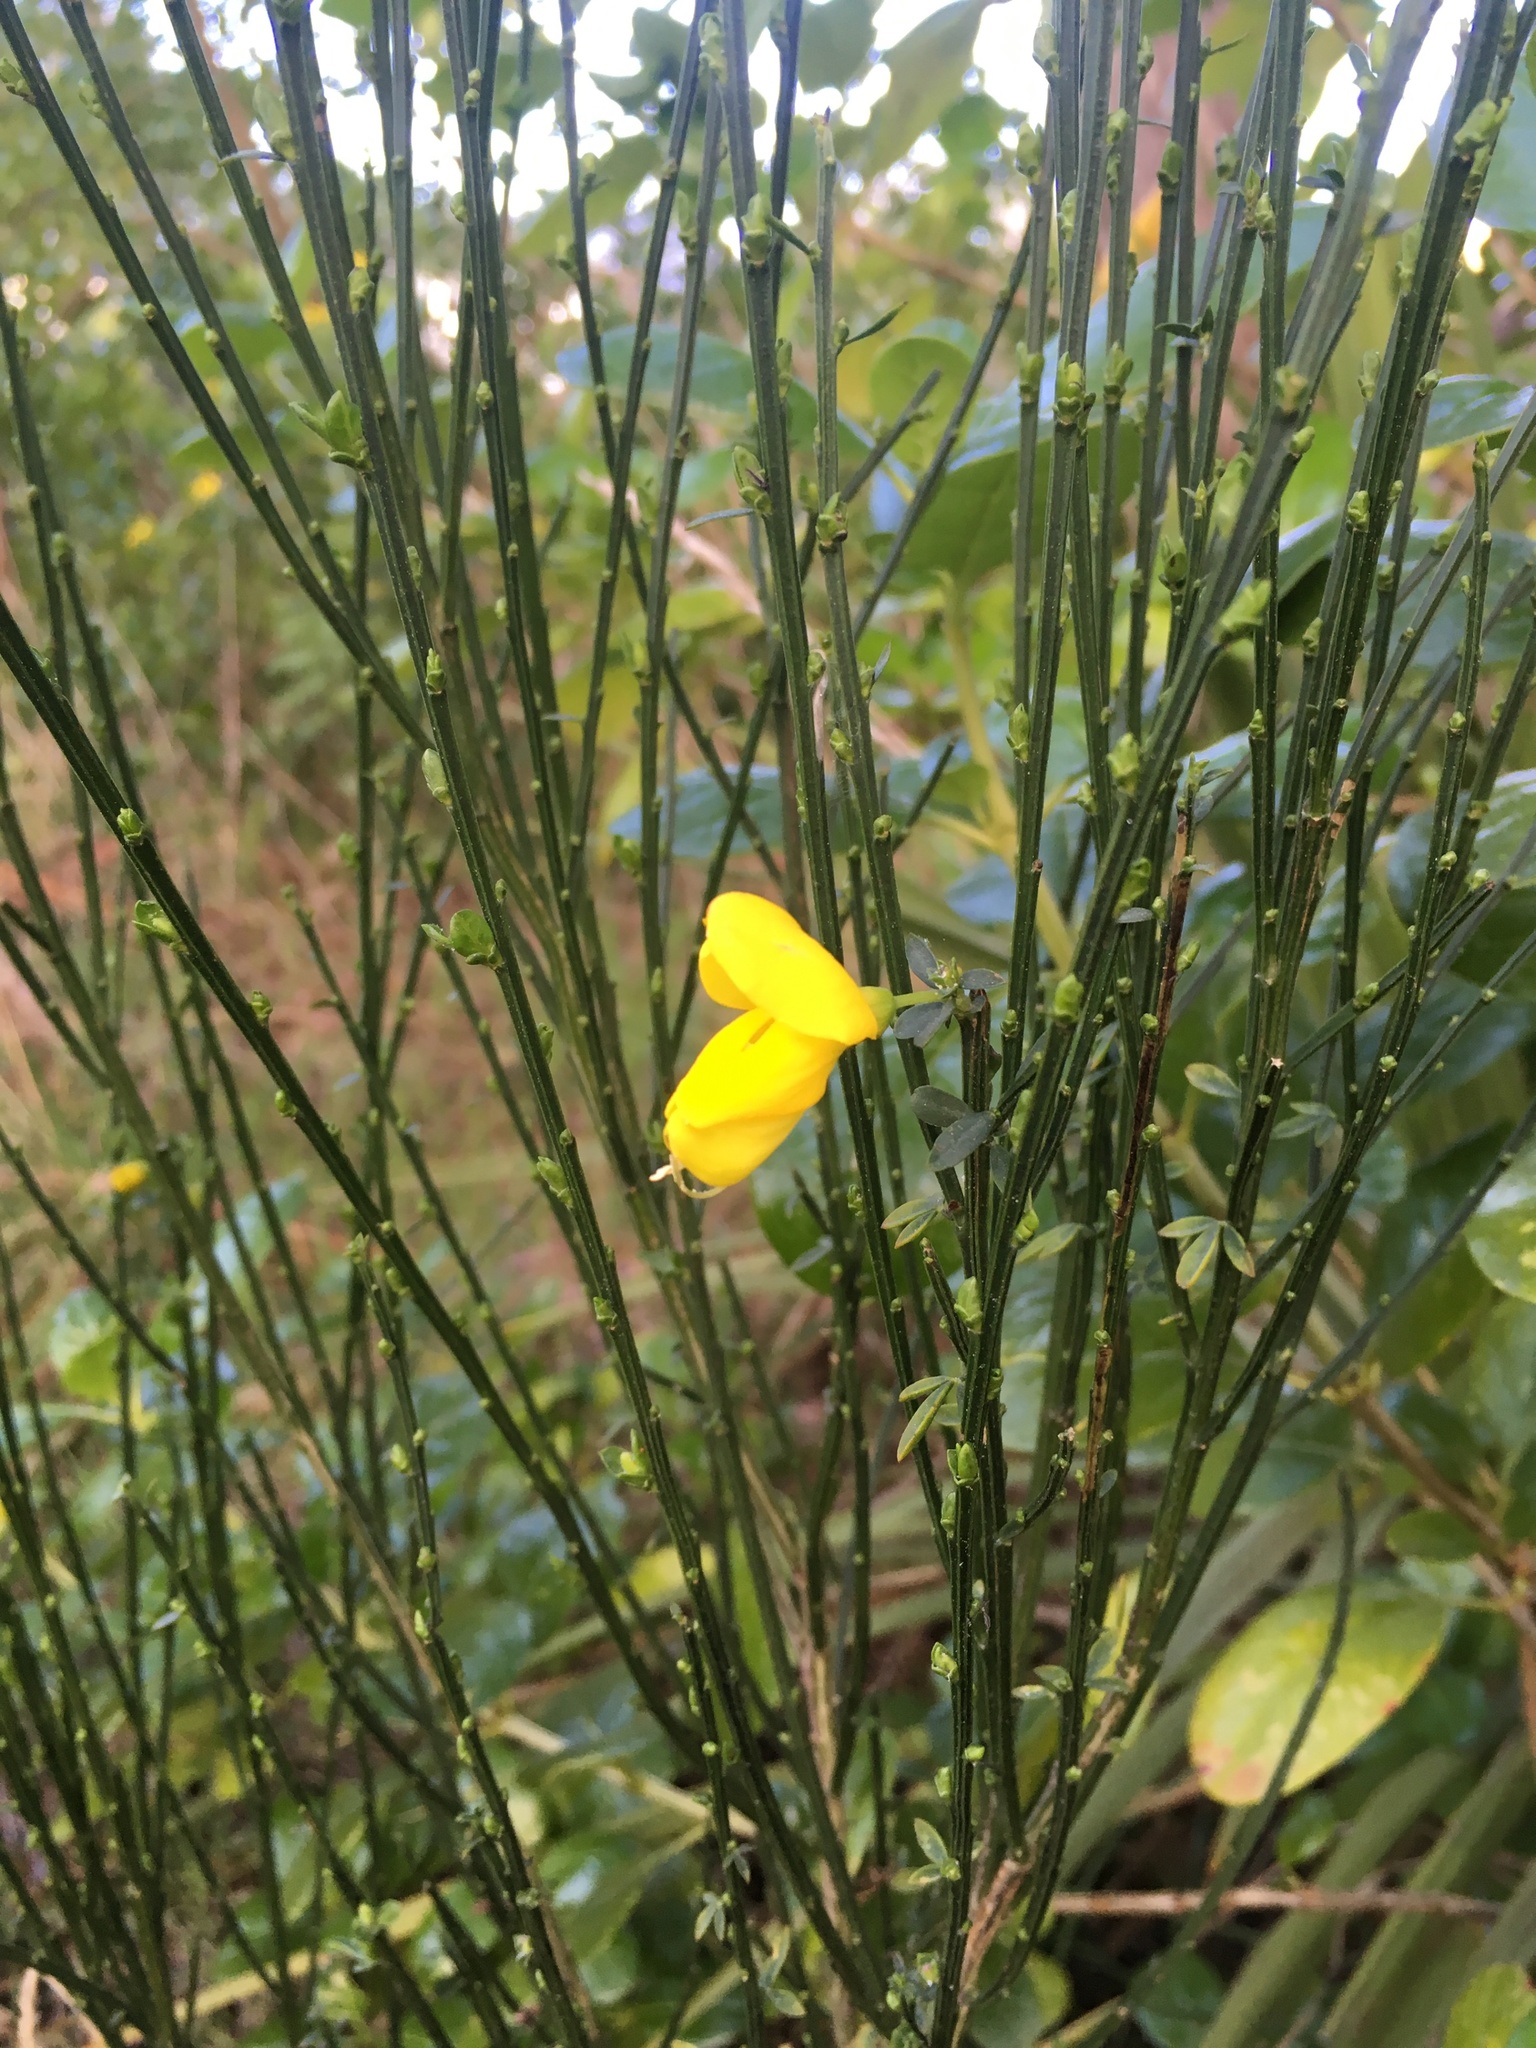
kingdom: Plantae
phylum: Tracheophyta
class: Magnoliopsida
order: Fabales
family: Fabaceae
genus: Cytisus
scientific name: Cytisus scoparius
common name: Scotch broom
